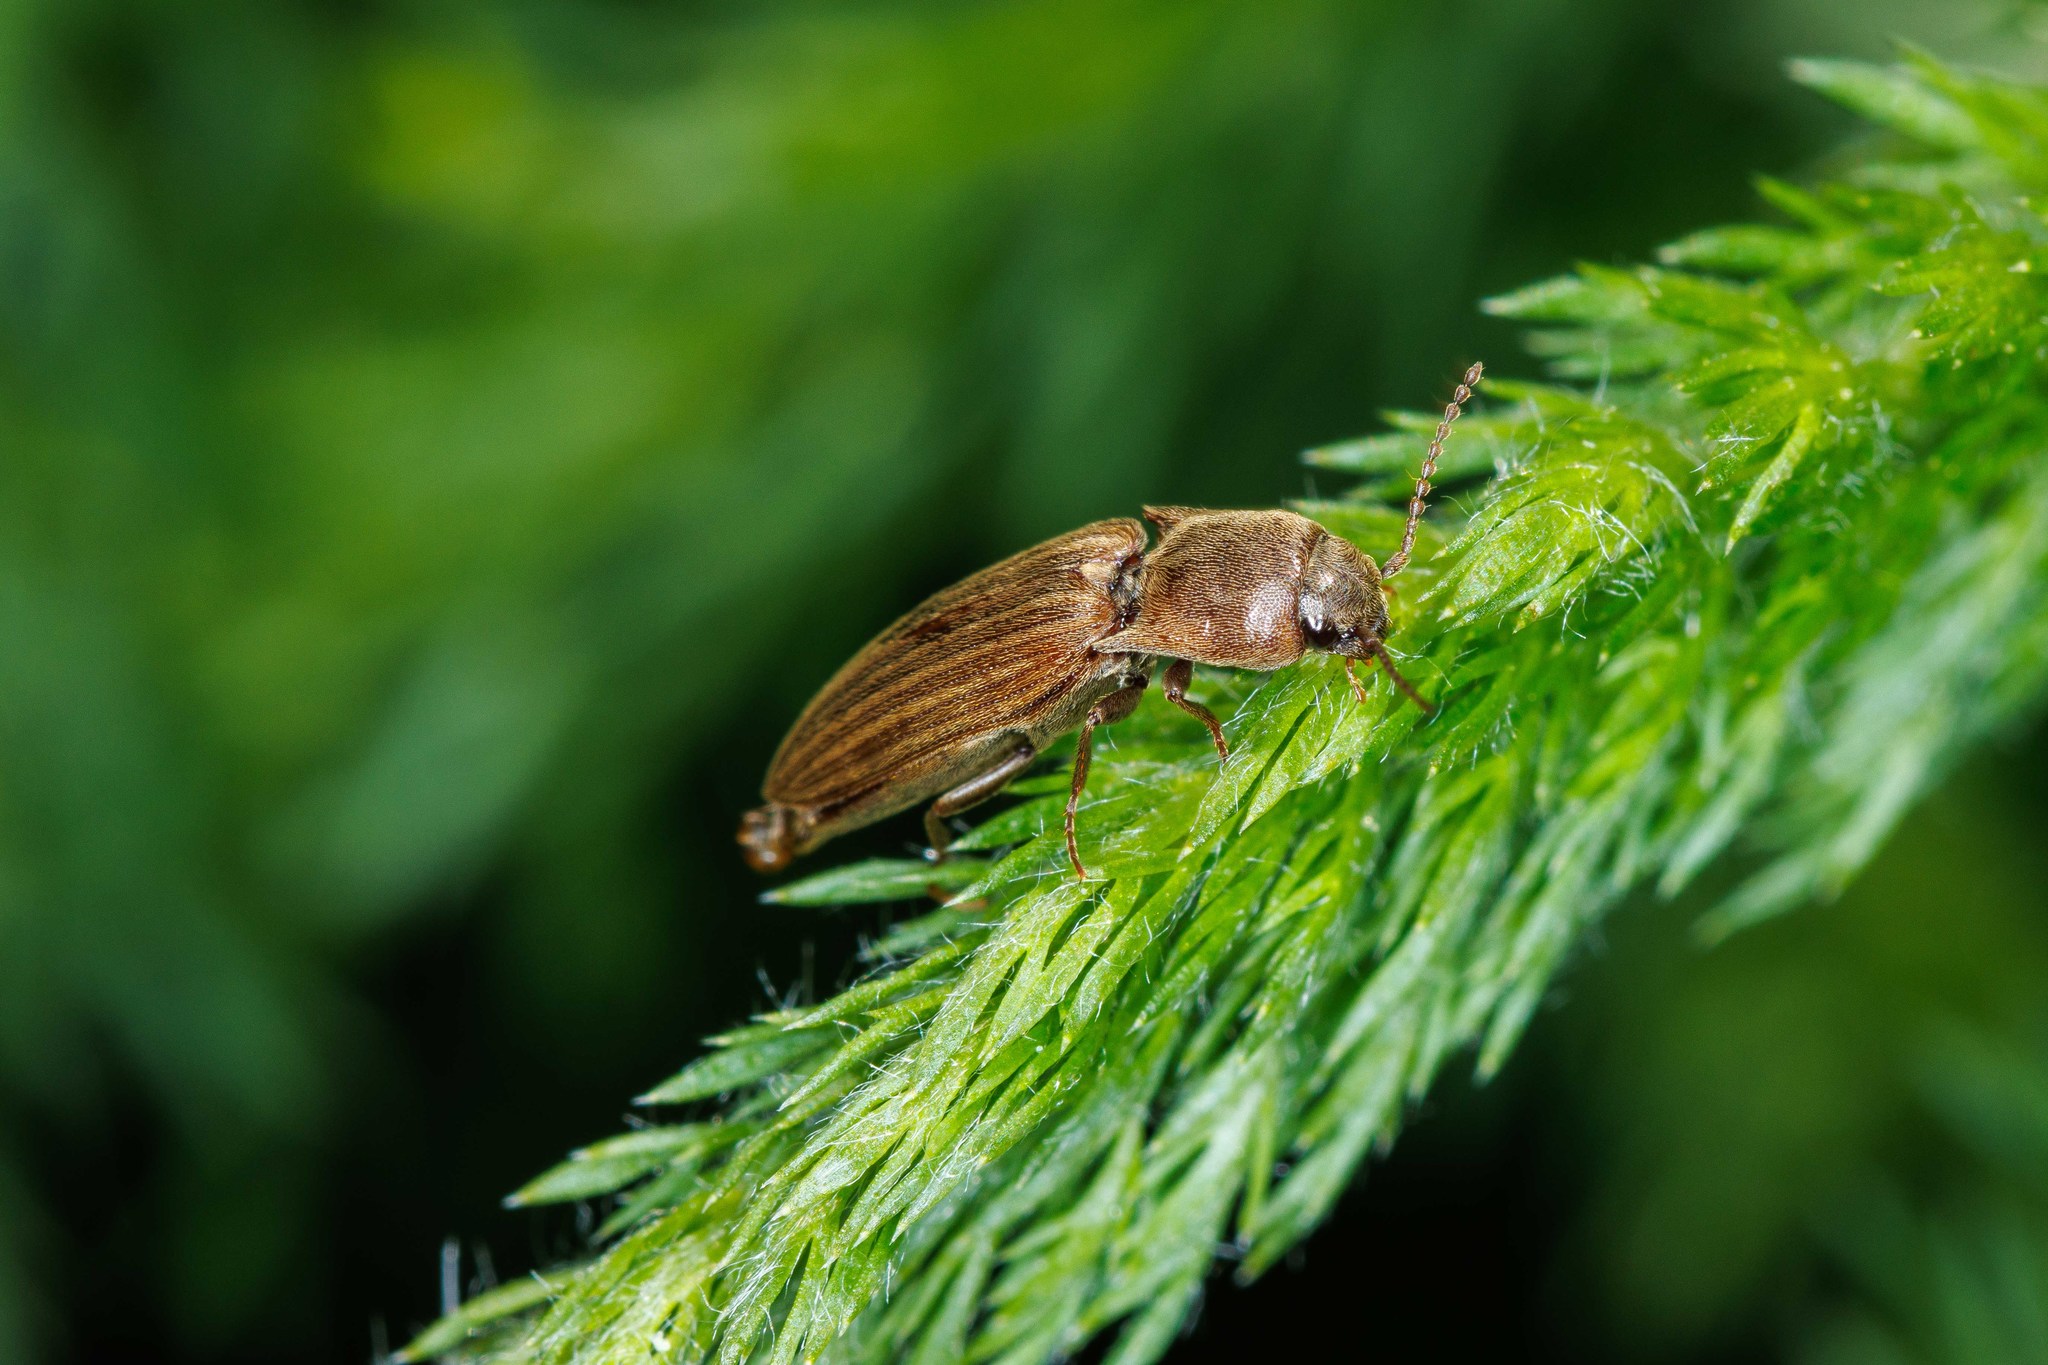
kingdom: Animalia
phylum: Arthropoda
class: Insecta
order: Coleoptera
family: Elateridae
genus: Agriotes
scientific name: Agriotes lineatus
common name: Lined click beetle
